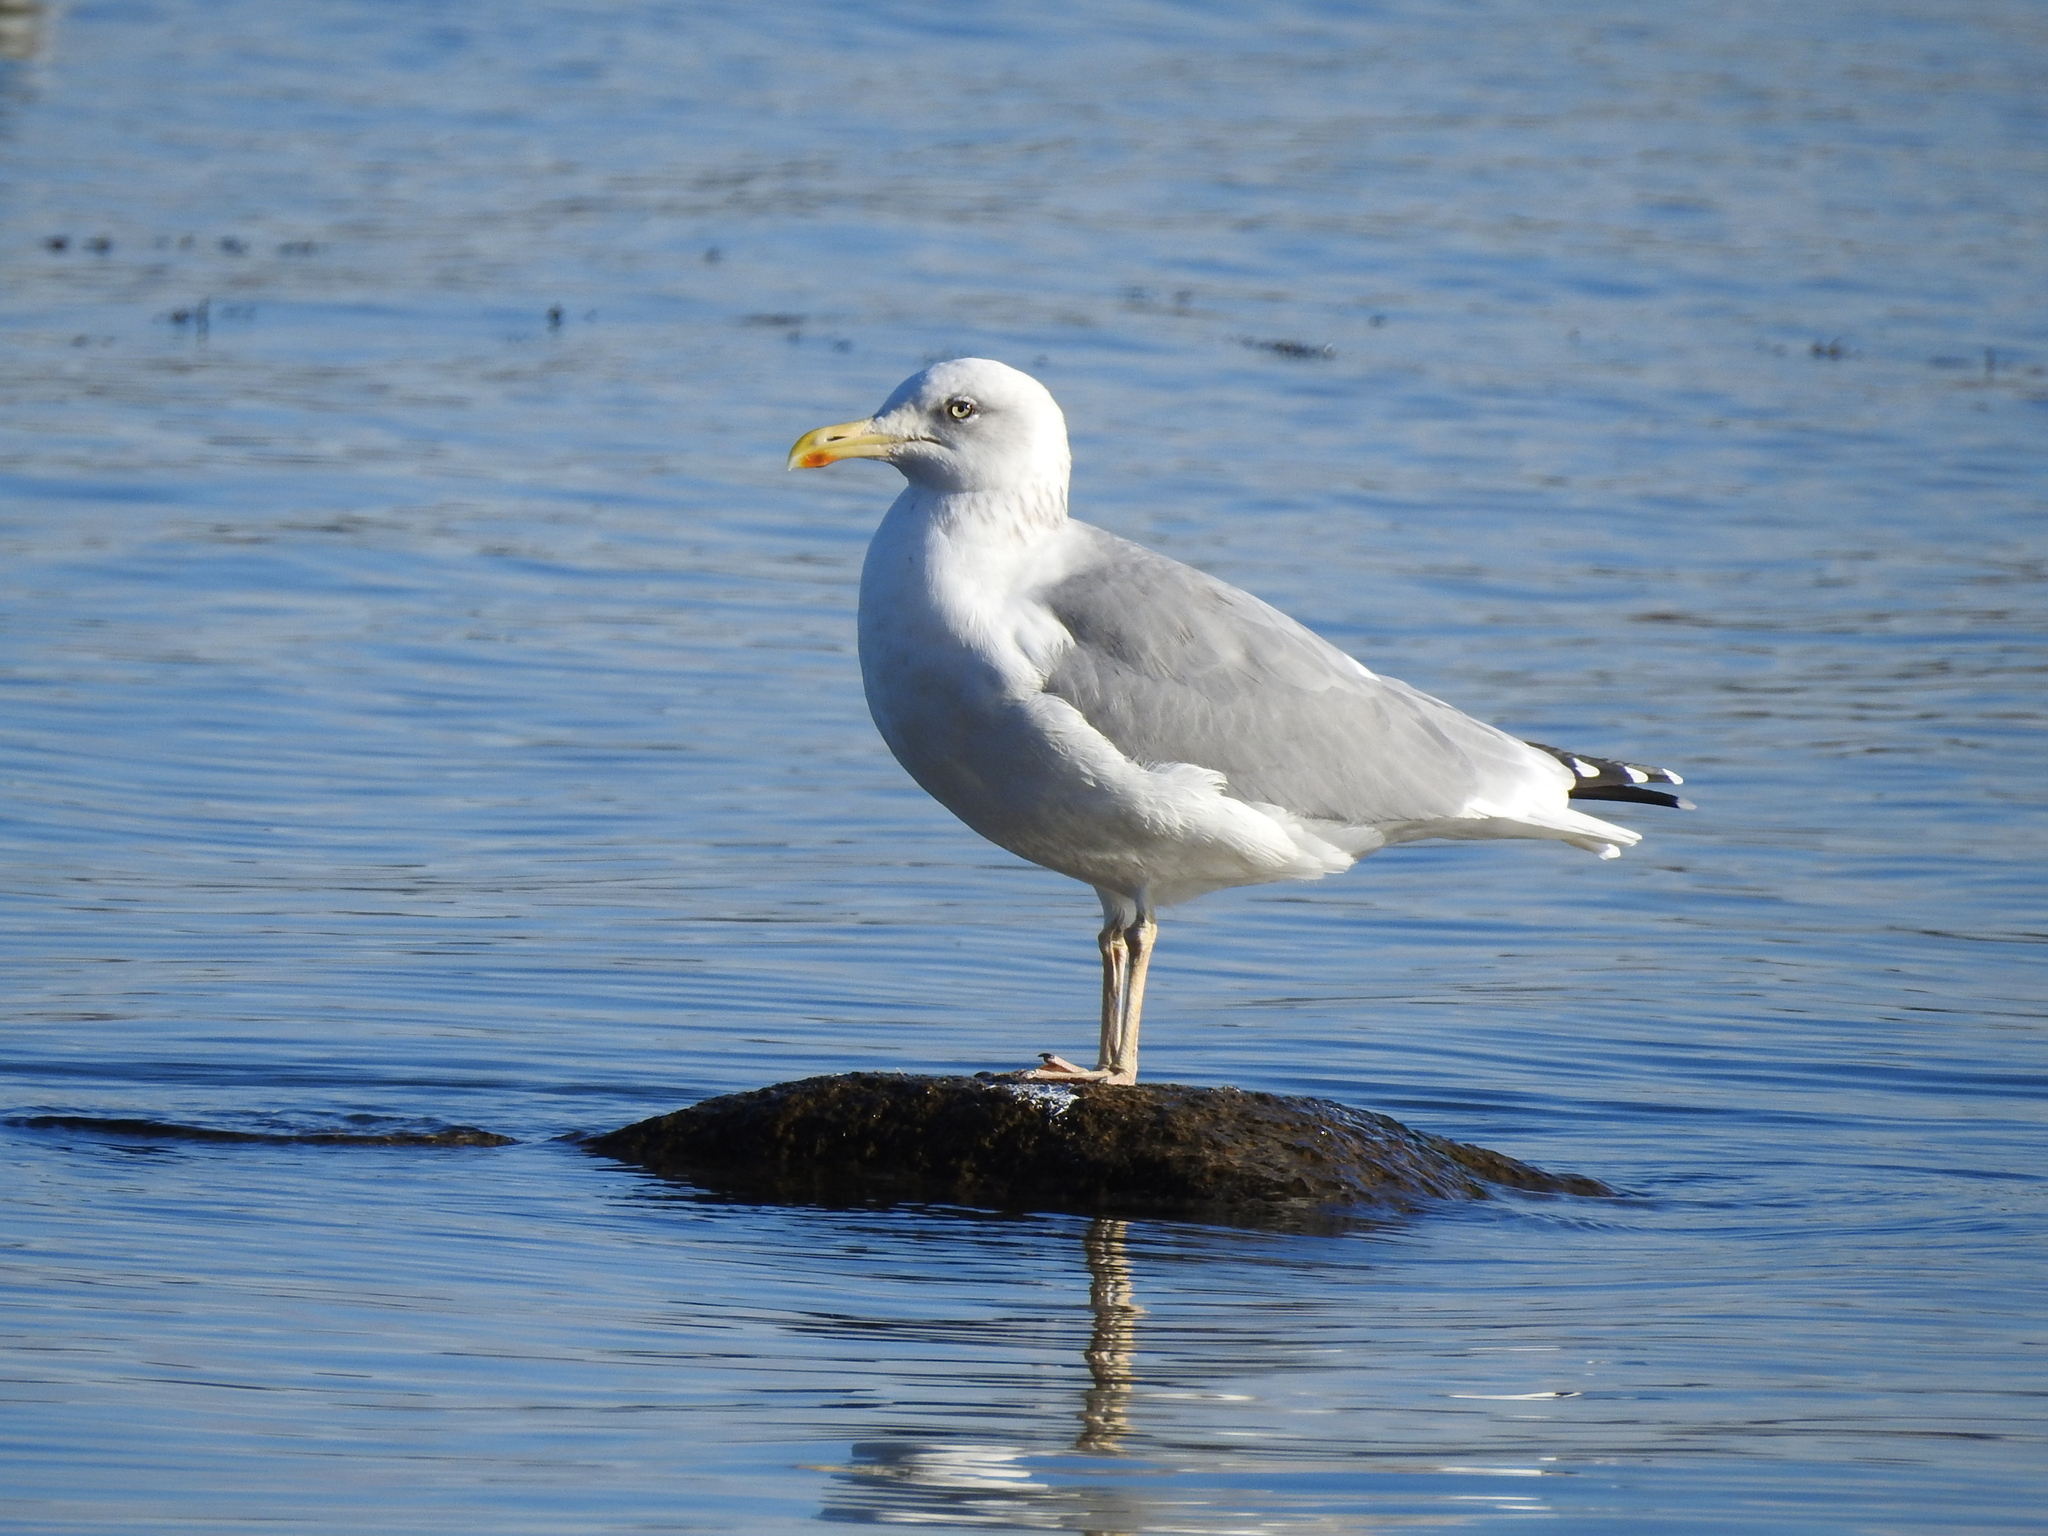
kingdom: Animalia
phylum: Chordata
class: Aves
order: Charadriiformes
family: Laridae
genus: Larus
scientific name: Larus fuscus
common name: Lesser black-backed gull
